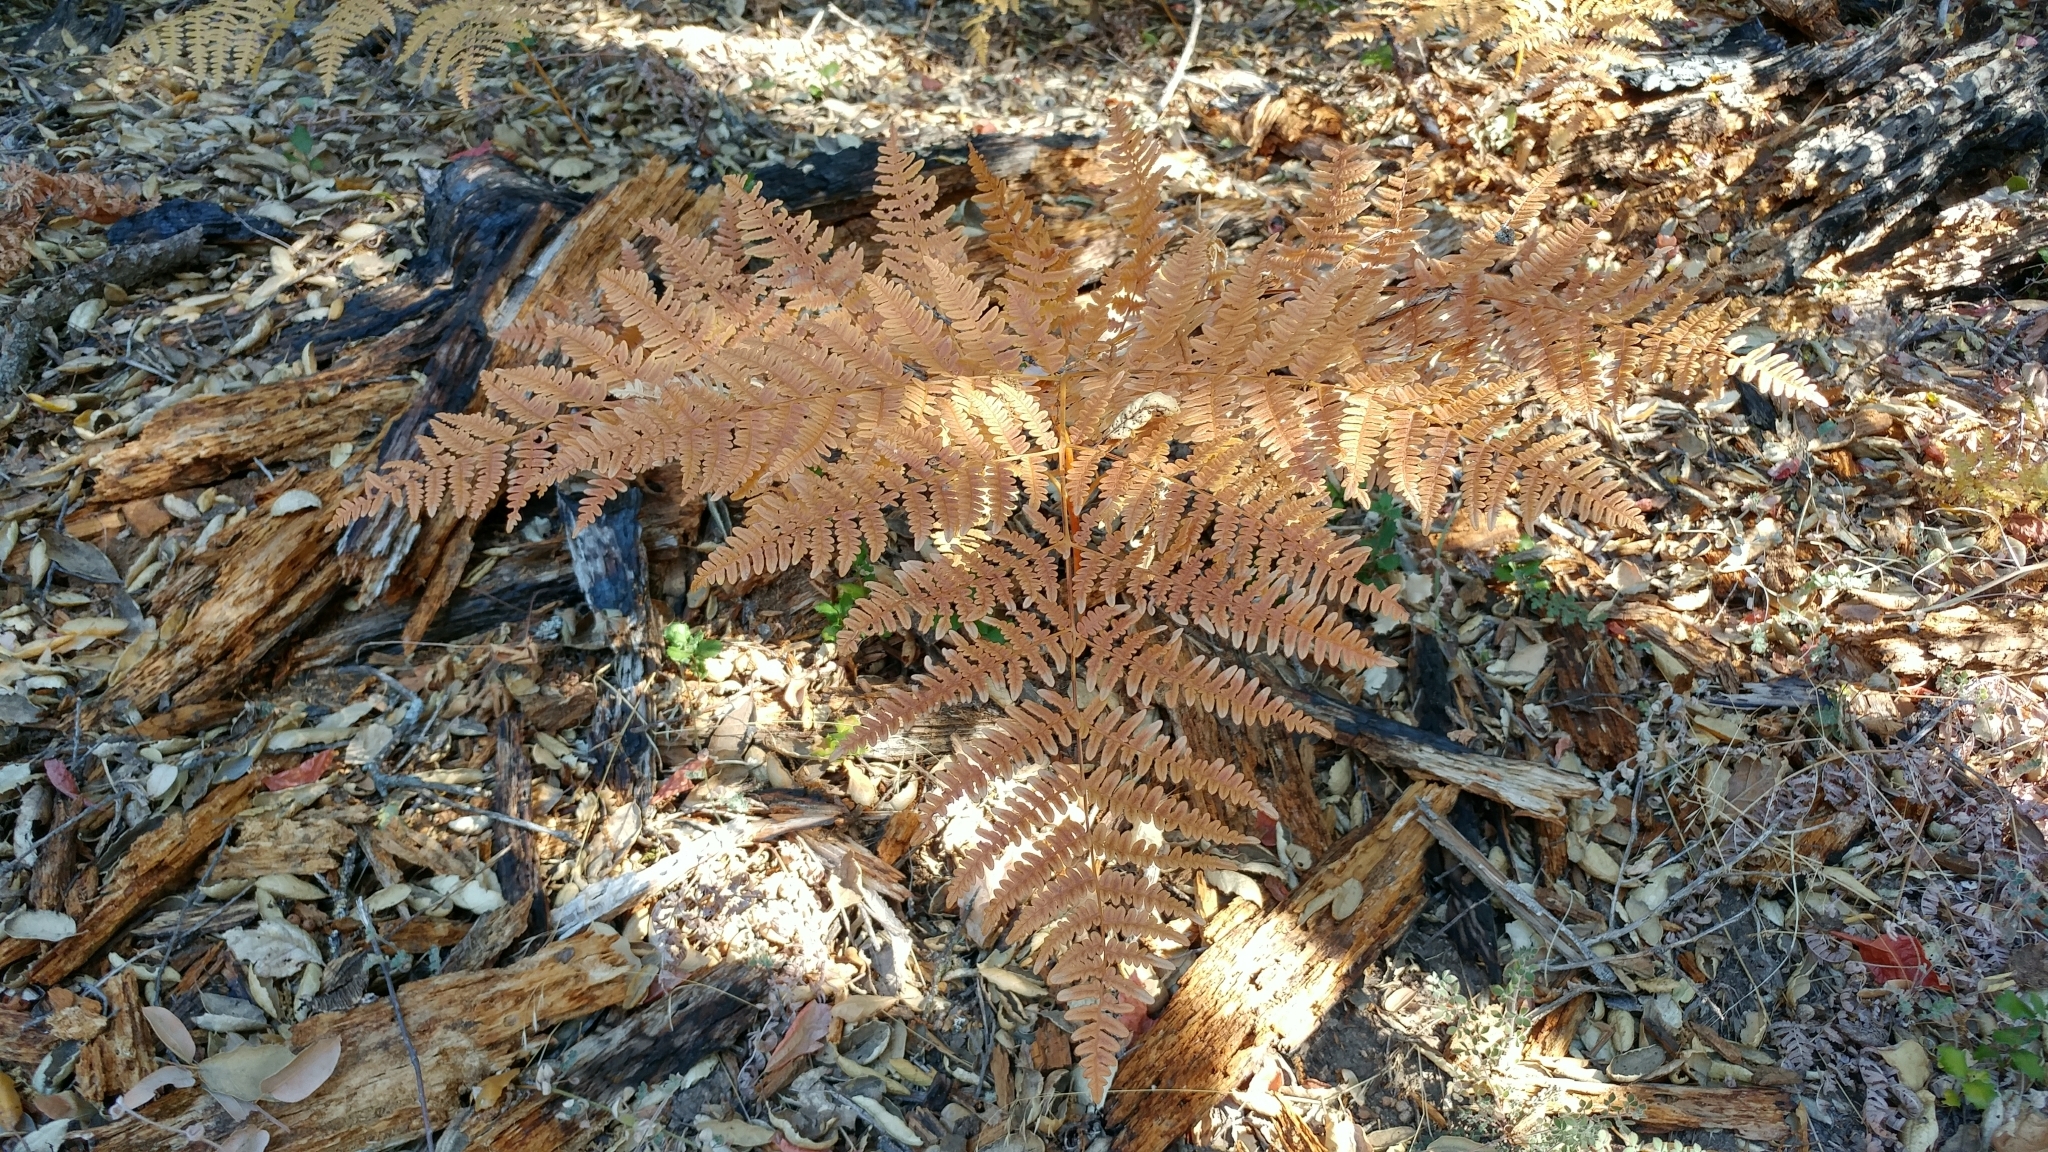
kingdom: Plantae
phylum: Tracheophyta
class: Polypodiopsida
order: Polypodiales
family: Dennstaedtiaceae
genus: Pteridium
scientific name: Pteridium aquilinum
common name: Bracken
